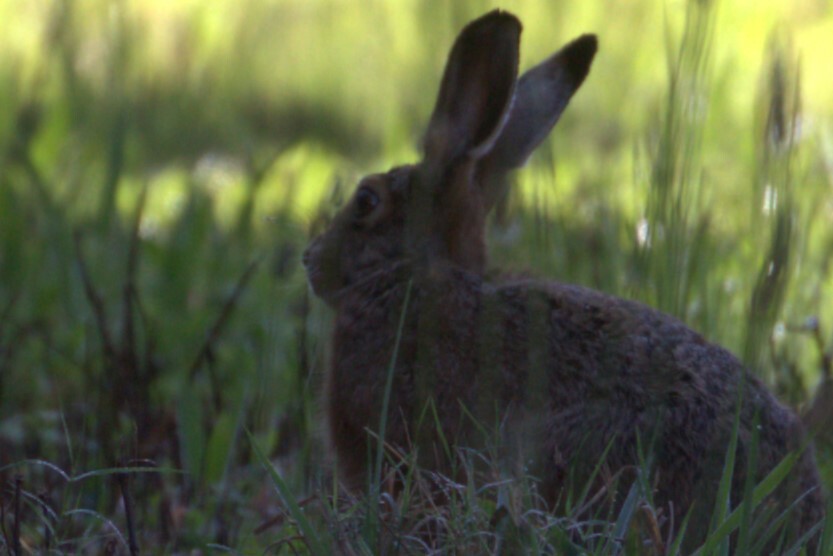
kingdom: Animalia
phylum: Chordata
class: Mammalia
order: Lagomorpha
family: Leporidae
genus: Lepus
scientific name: Lepus europaeus
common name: European hare
